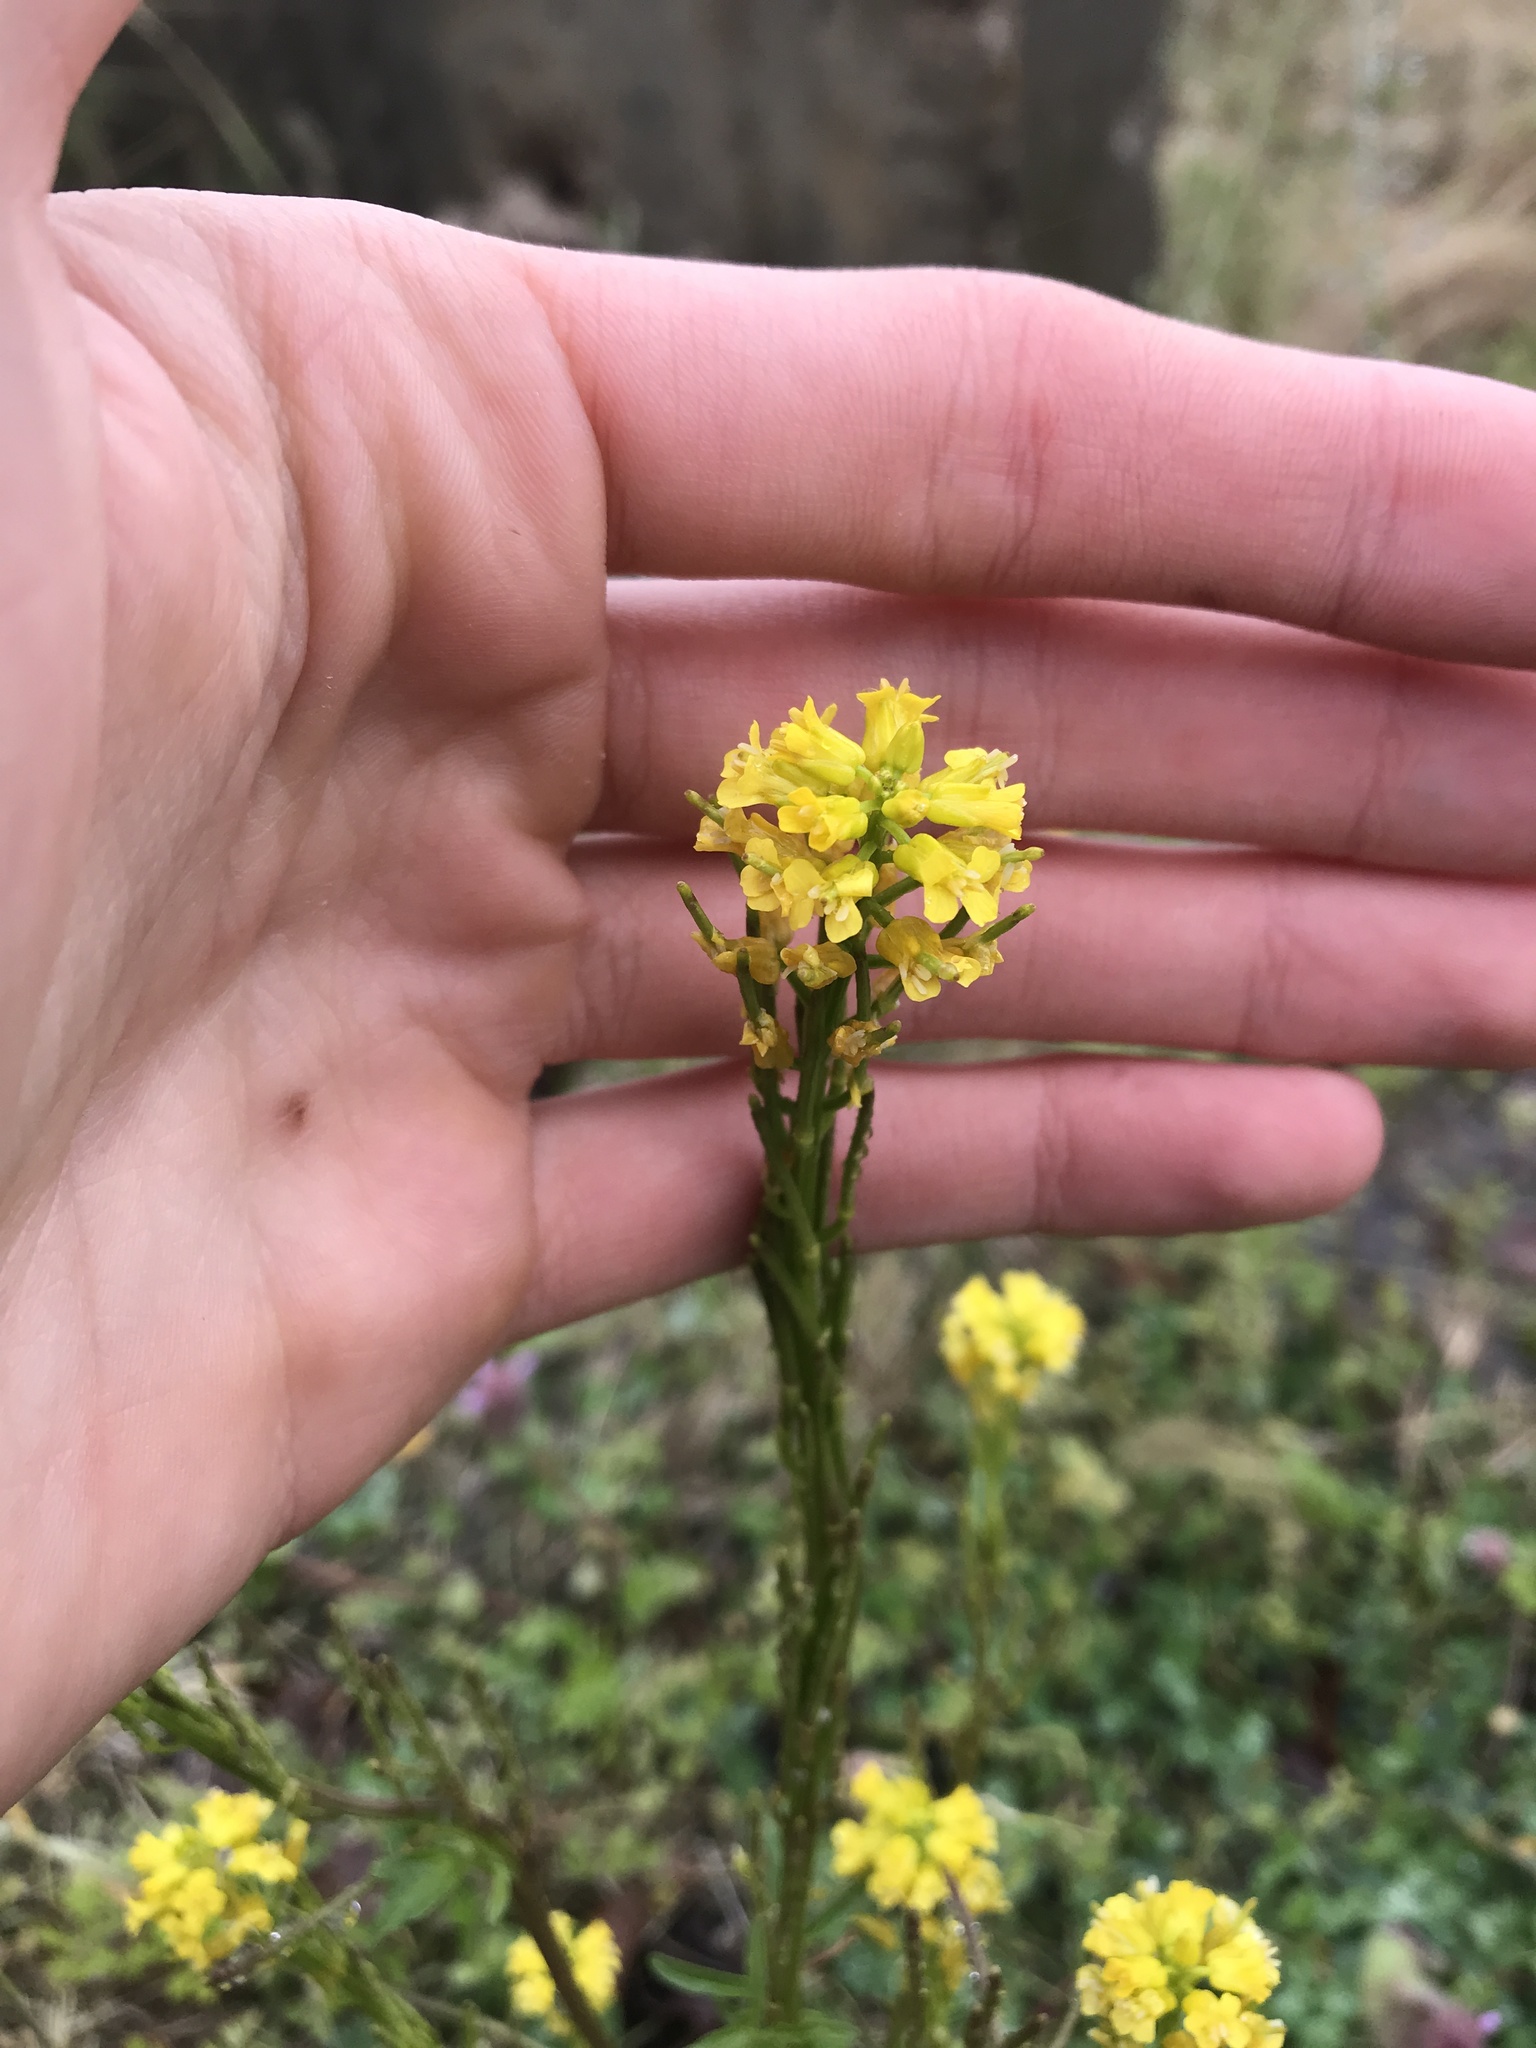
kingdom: Plantae
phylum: Tracheophyta
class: Magnoliopsida
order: Brassicales
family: Brassicaceae
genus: Barbarea
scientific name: Barbarea vulgaris
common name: Cressy-greens
